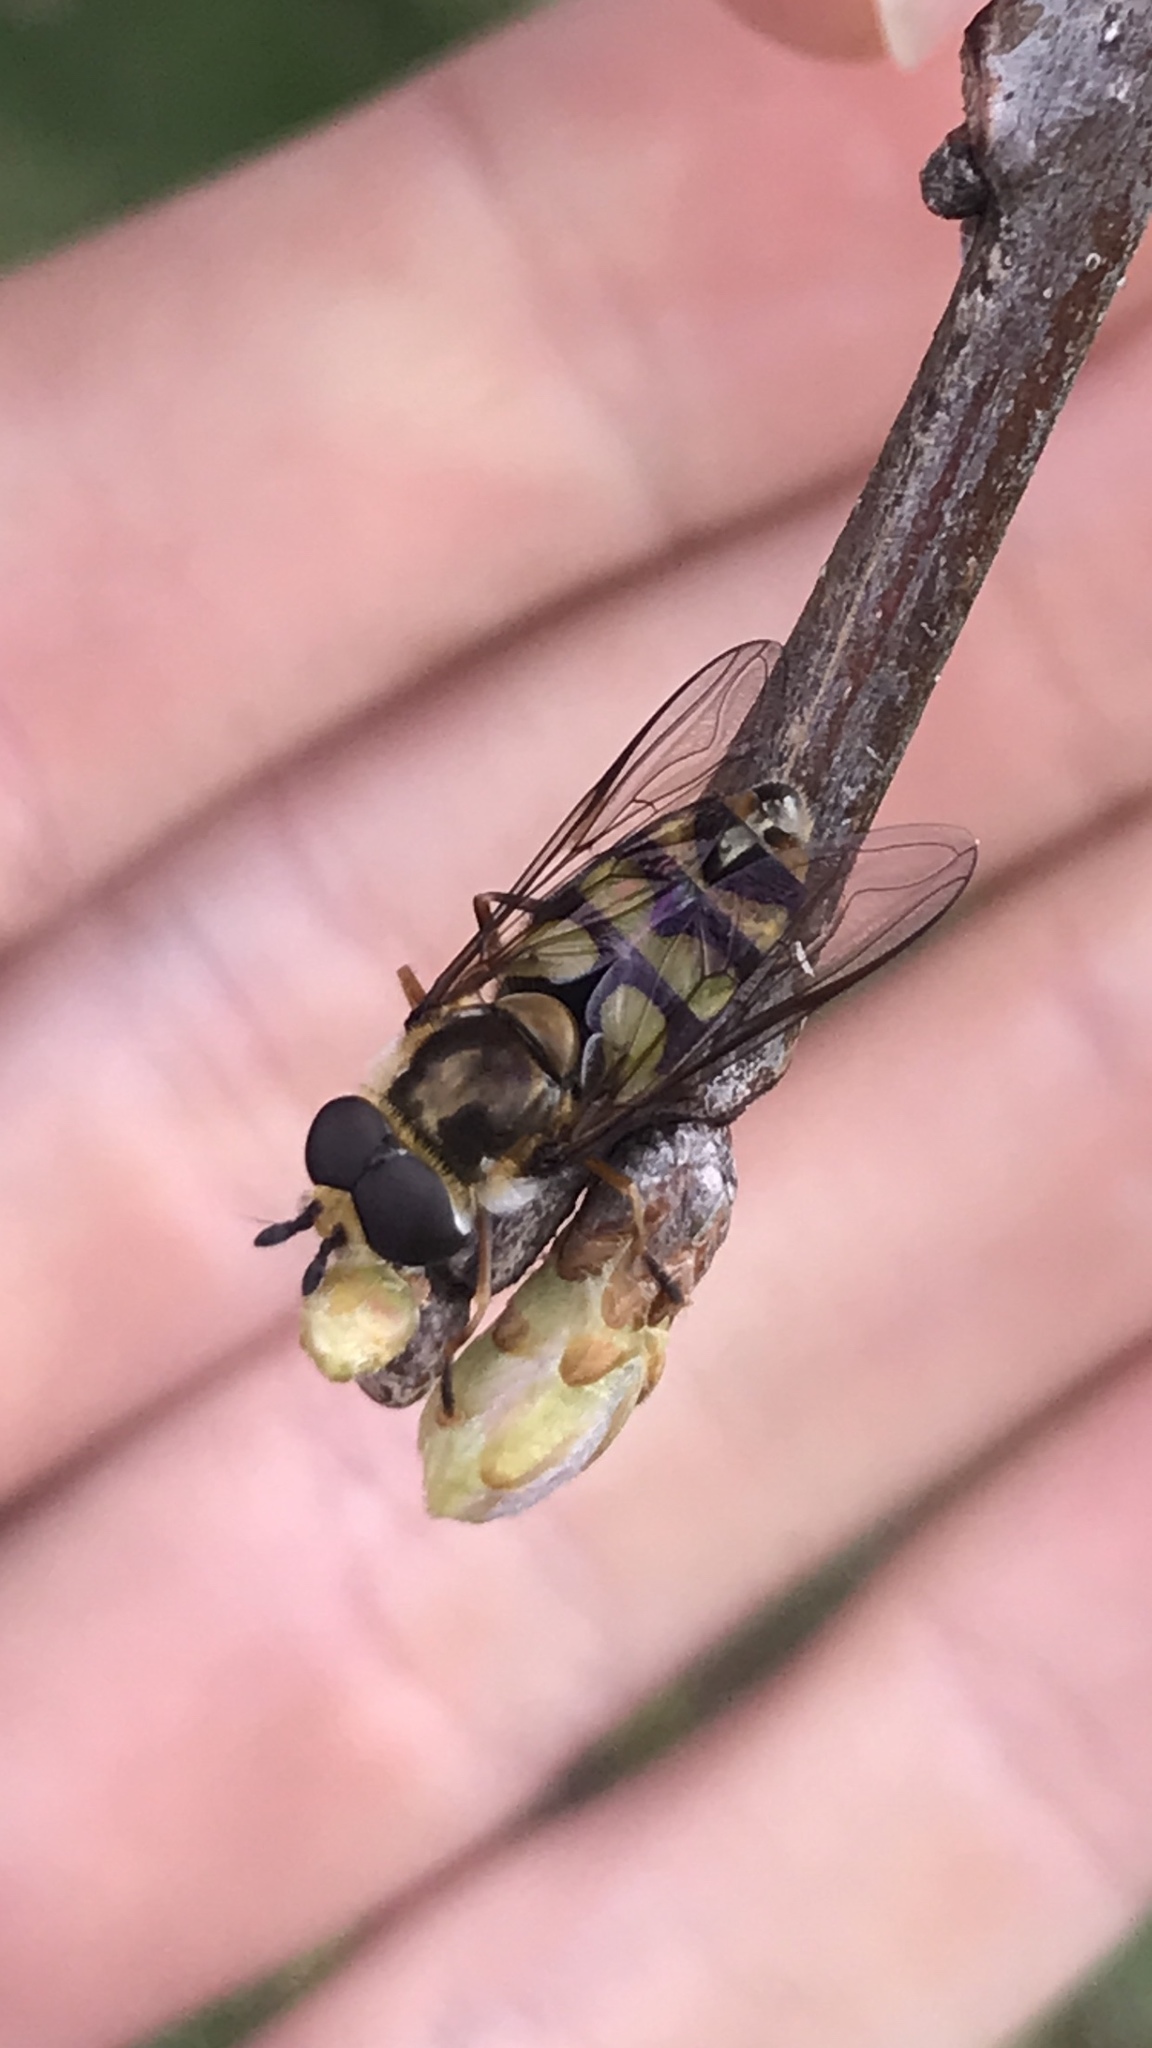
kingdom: Animalia
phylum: Arthropoda
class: Insecta
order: Diptera
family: Syrphidae
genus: Didea
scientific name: Didea fuscipes
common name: Undivided lucent
